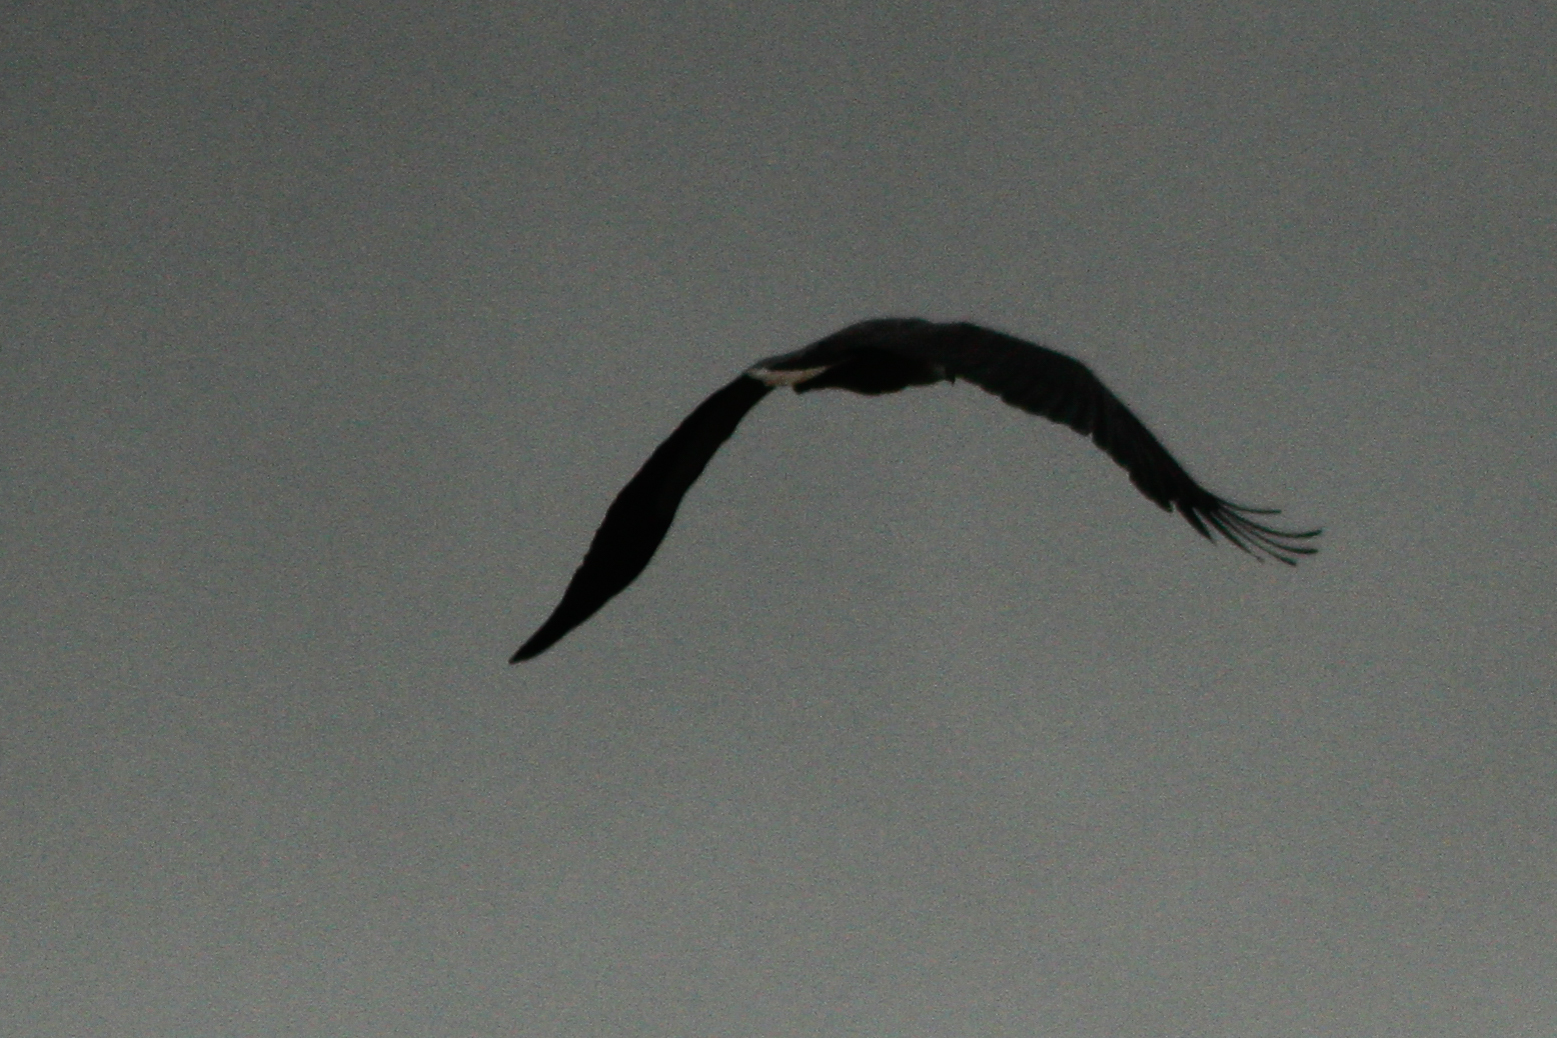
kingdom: Animalia
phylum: Chordata
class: Aves
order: Accipitriformes
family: Accipitridae
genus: Haliaeetus
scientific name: Haliaeetus leucogaster
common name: White-bellied sea eagle
